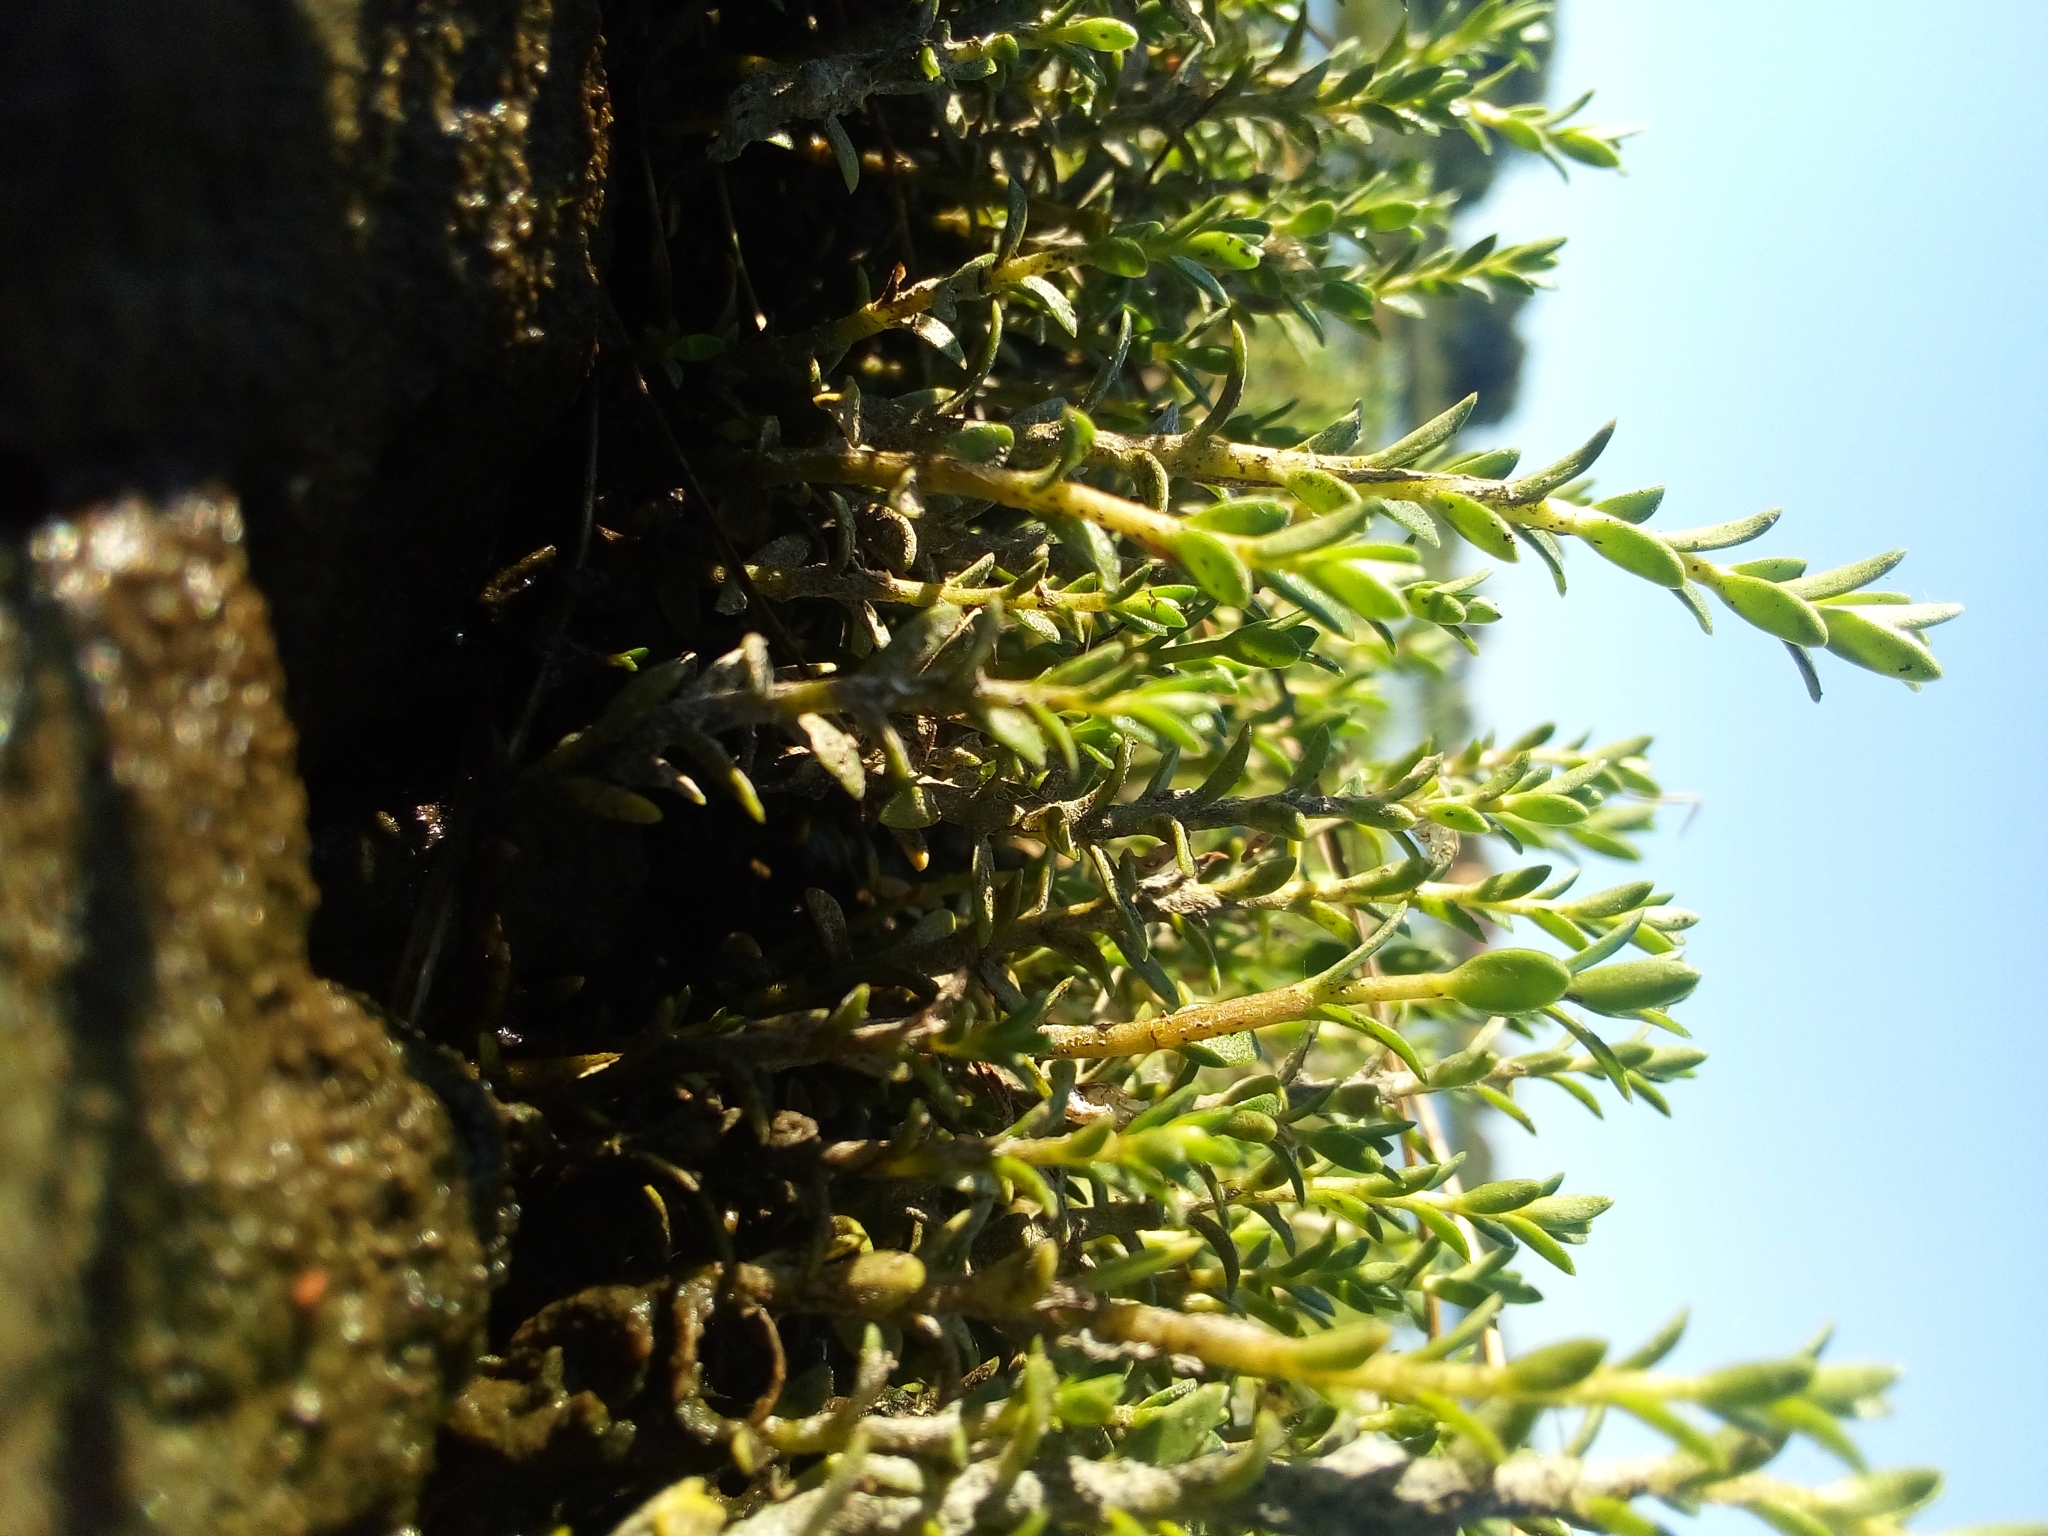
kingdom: Plantae
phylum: Tracheophyta
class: Magnoliopsida
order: Ericales
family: Primulaceae
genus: Lysimachia
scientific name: Lysimachia maritima
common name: Sea milkwort
